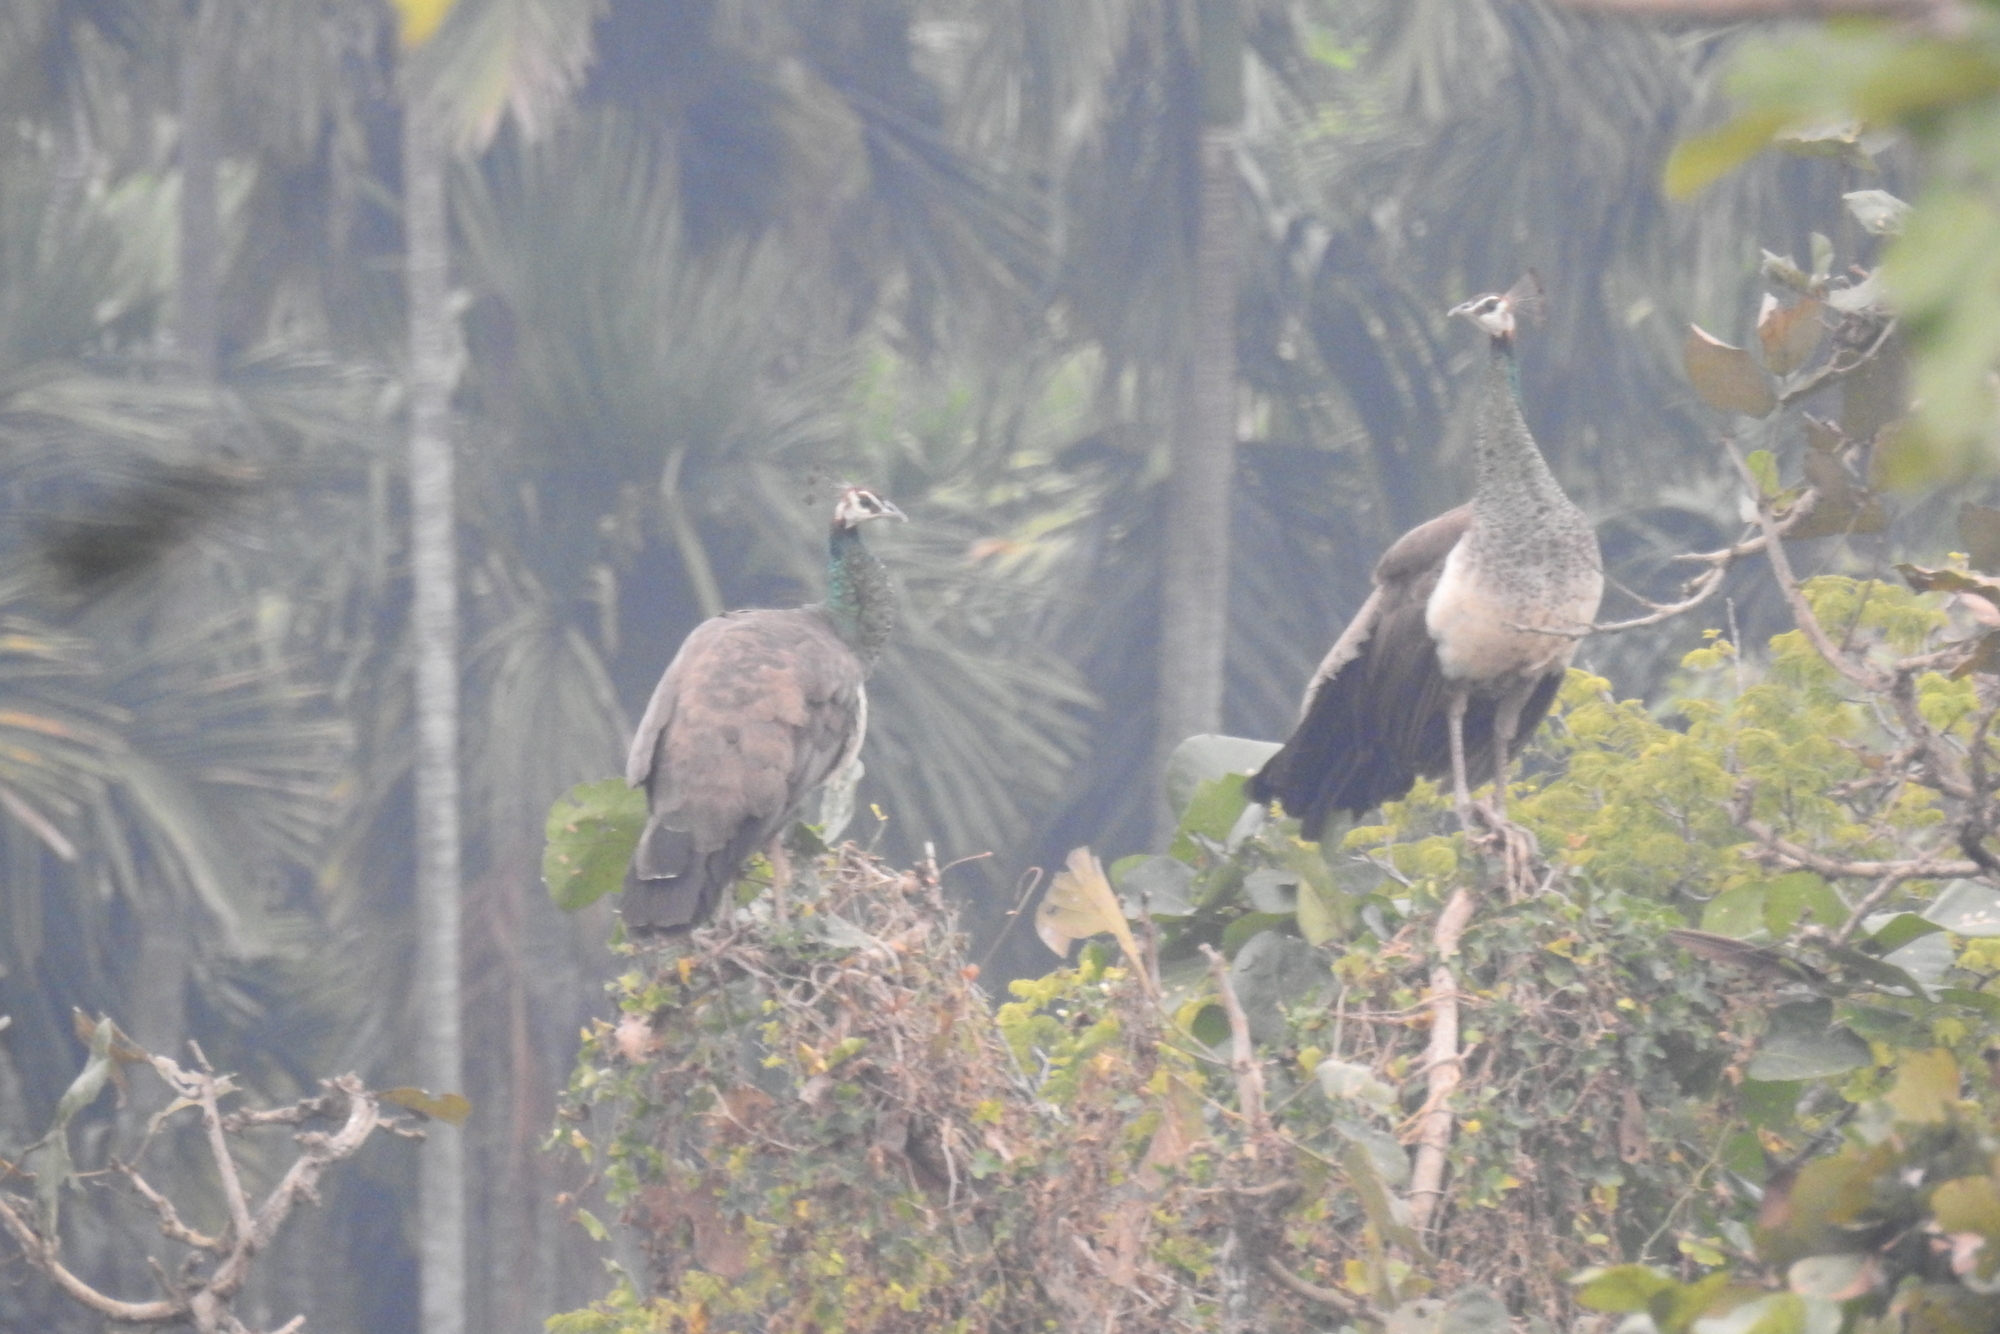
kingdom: Animalia
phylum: Chordata
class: Aves
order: Galliformes
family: Phasianidae
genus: Pavo
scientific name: Pavo cristatus
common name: Indian peafowl
